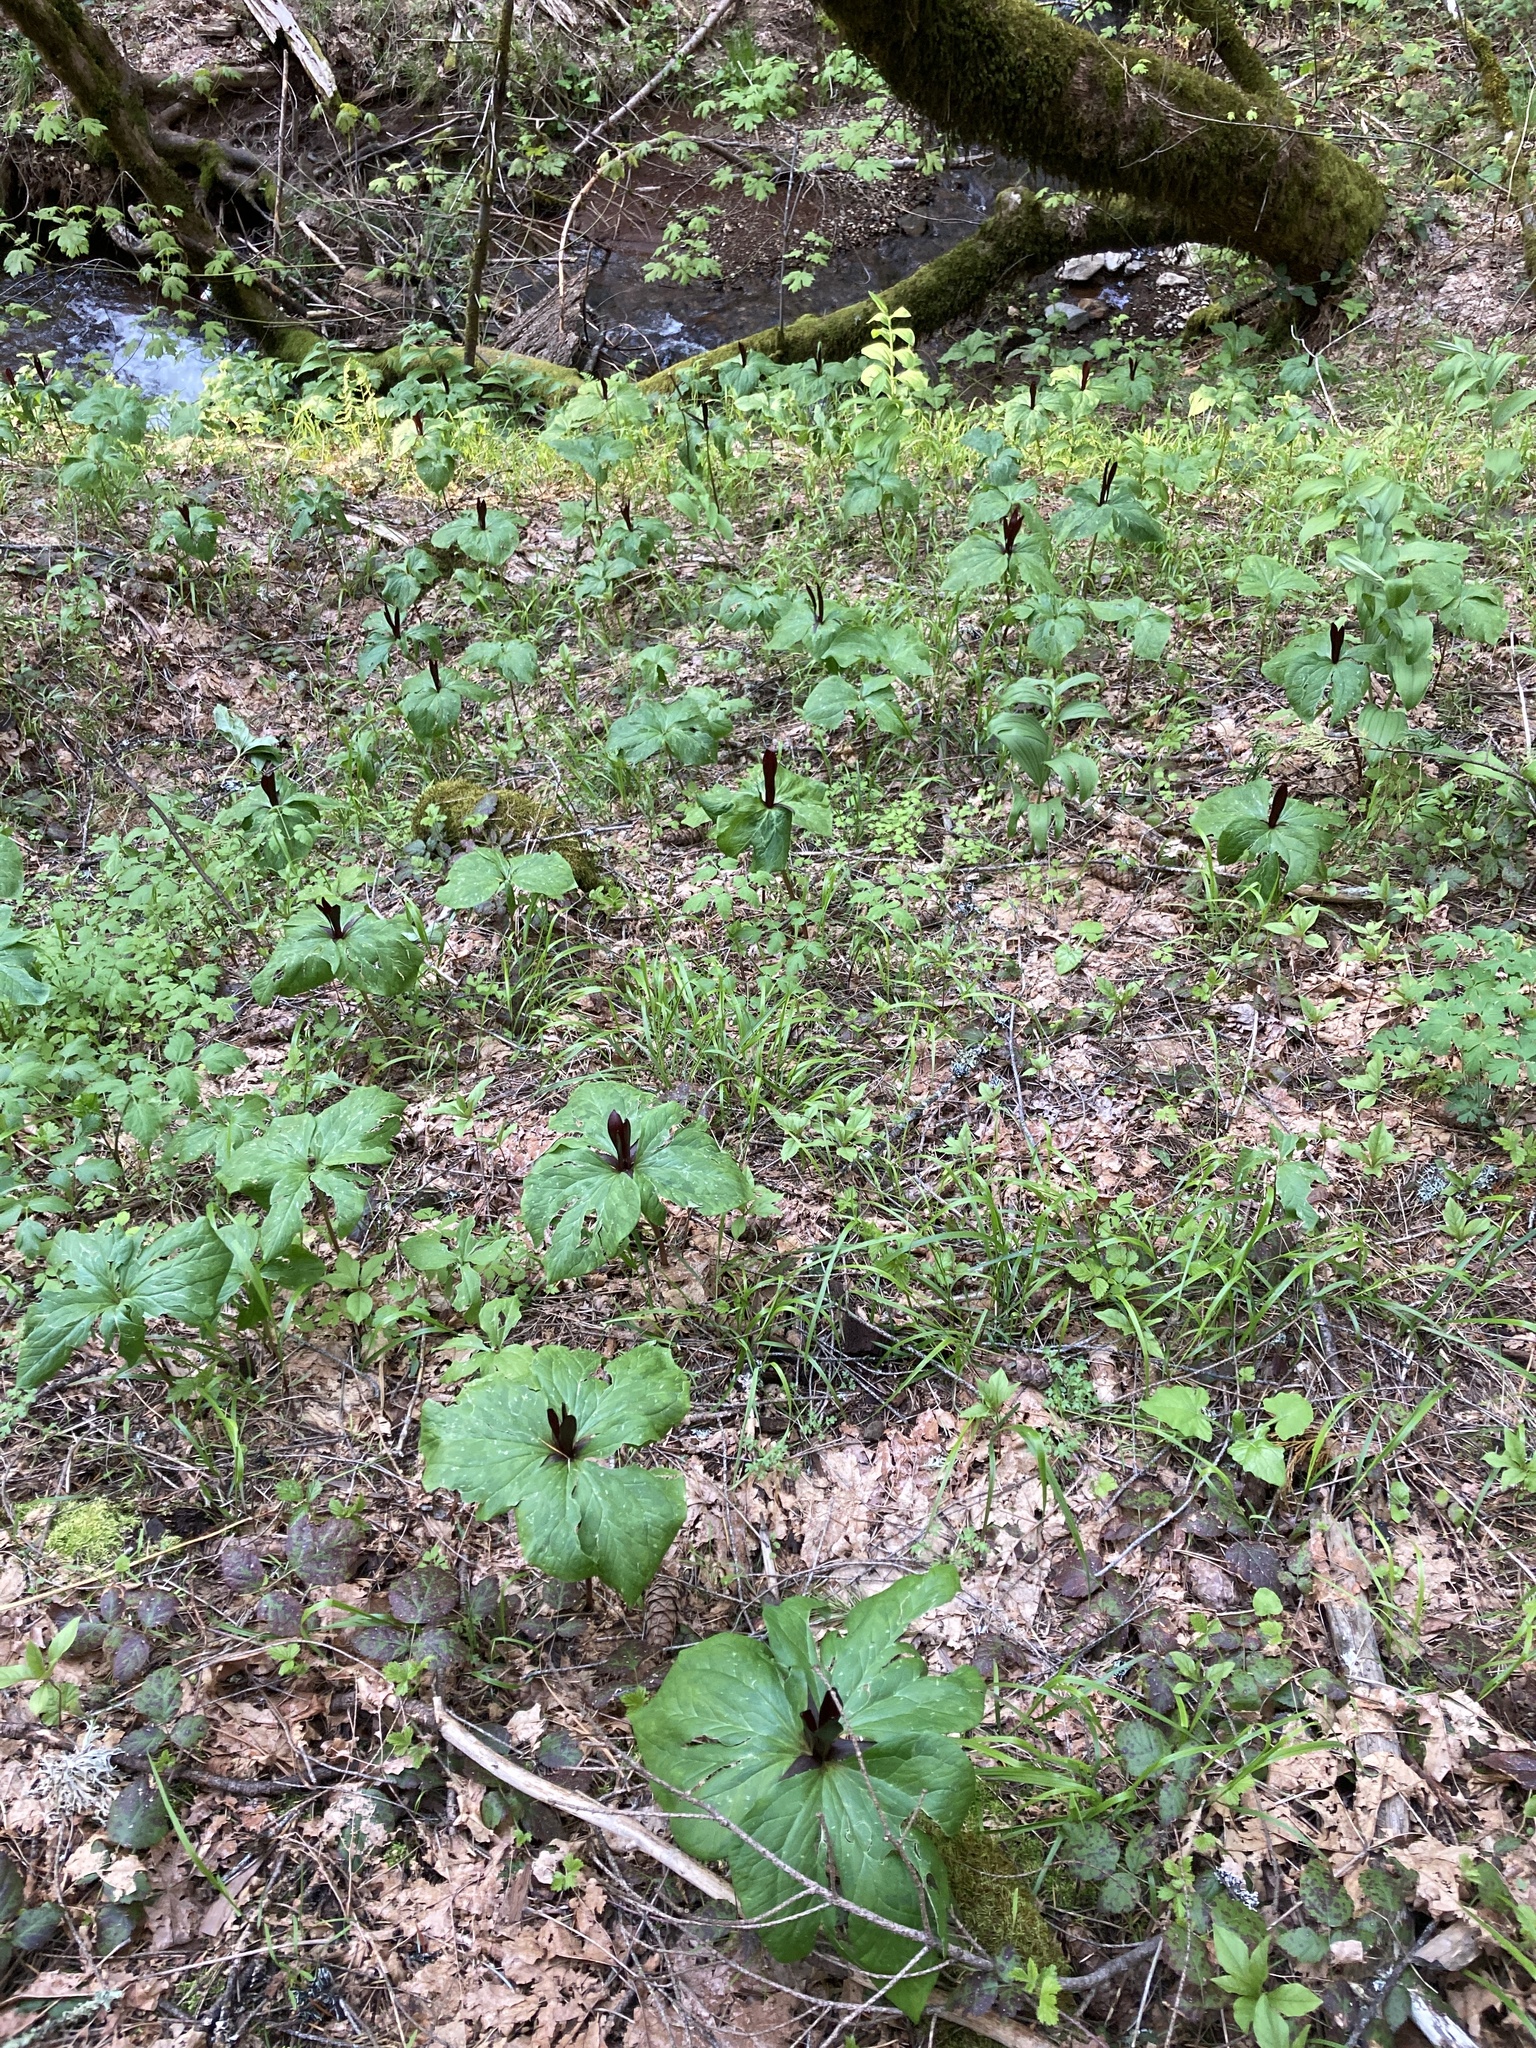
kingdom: Plantae
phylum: Tracheophyta
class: Liliopsida
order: Liliales
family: Melanthiaceae
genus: Trillium
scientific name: Trillium angustipetalum
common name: Narrow-petaled trillium
